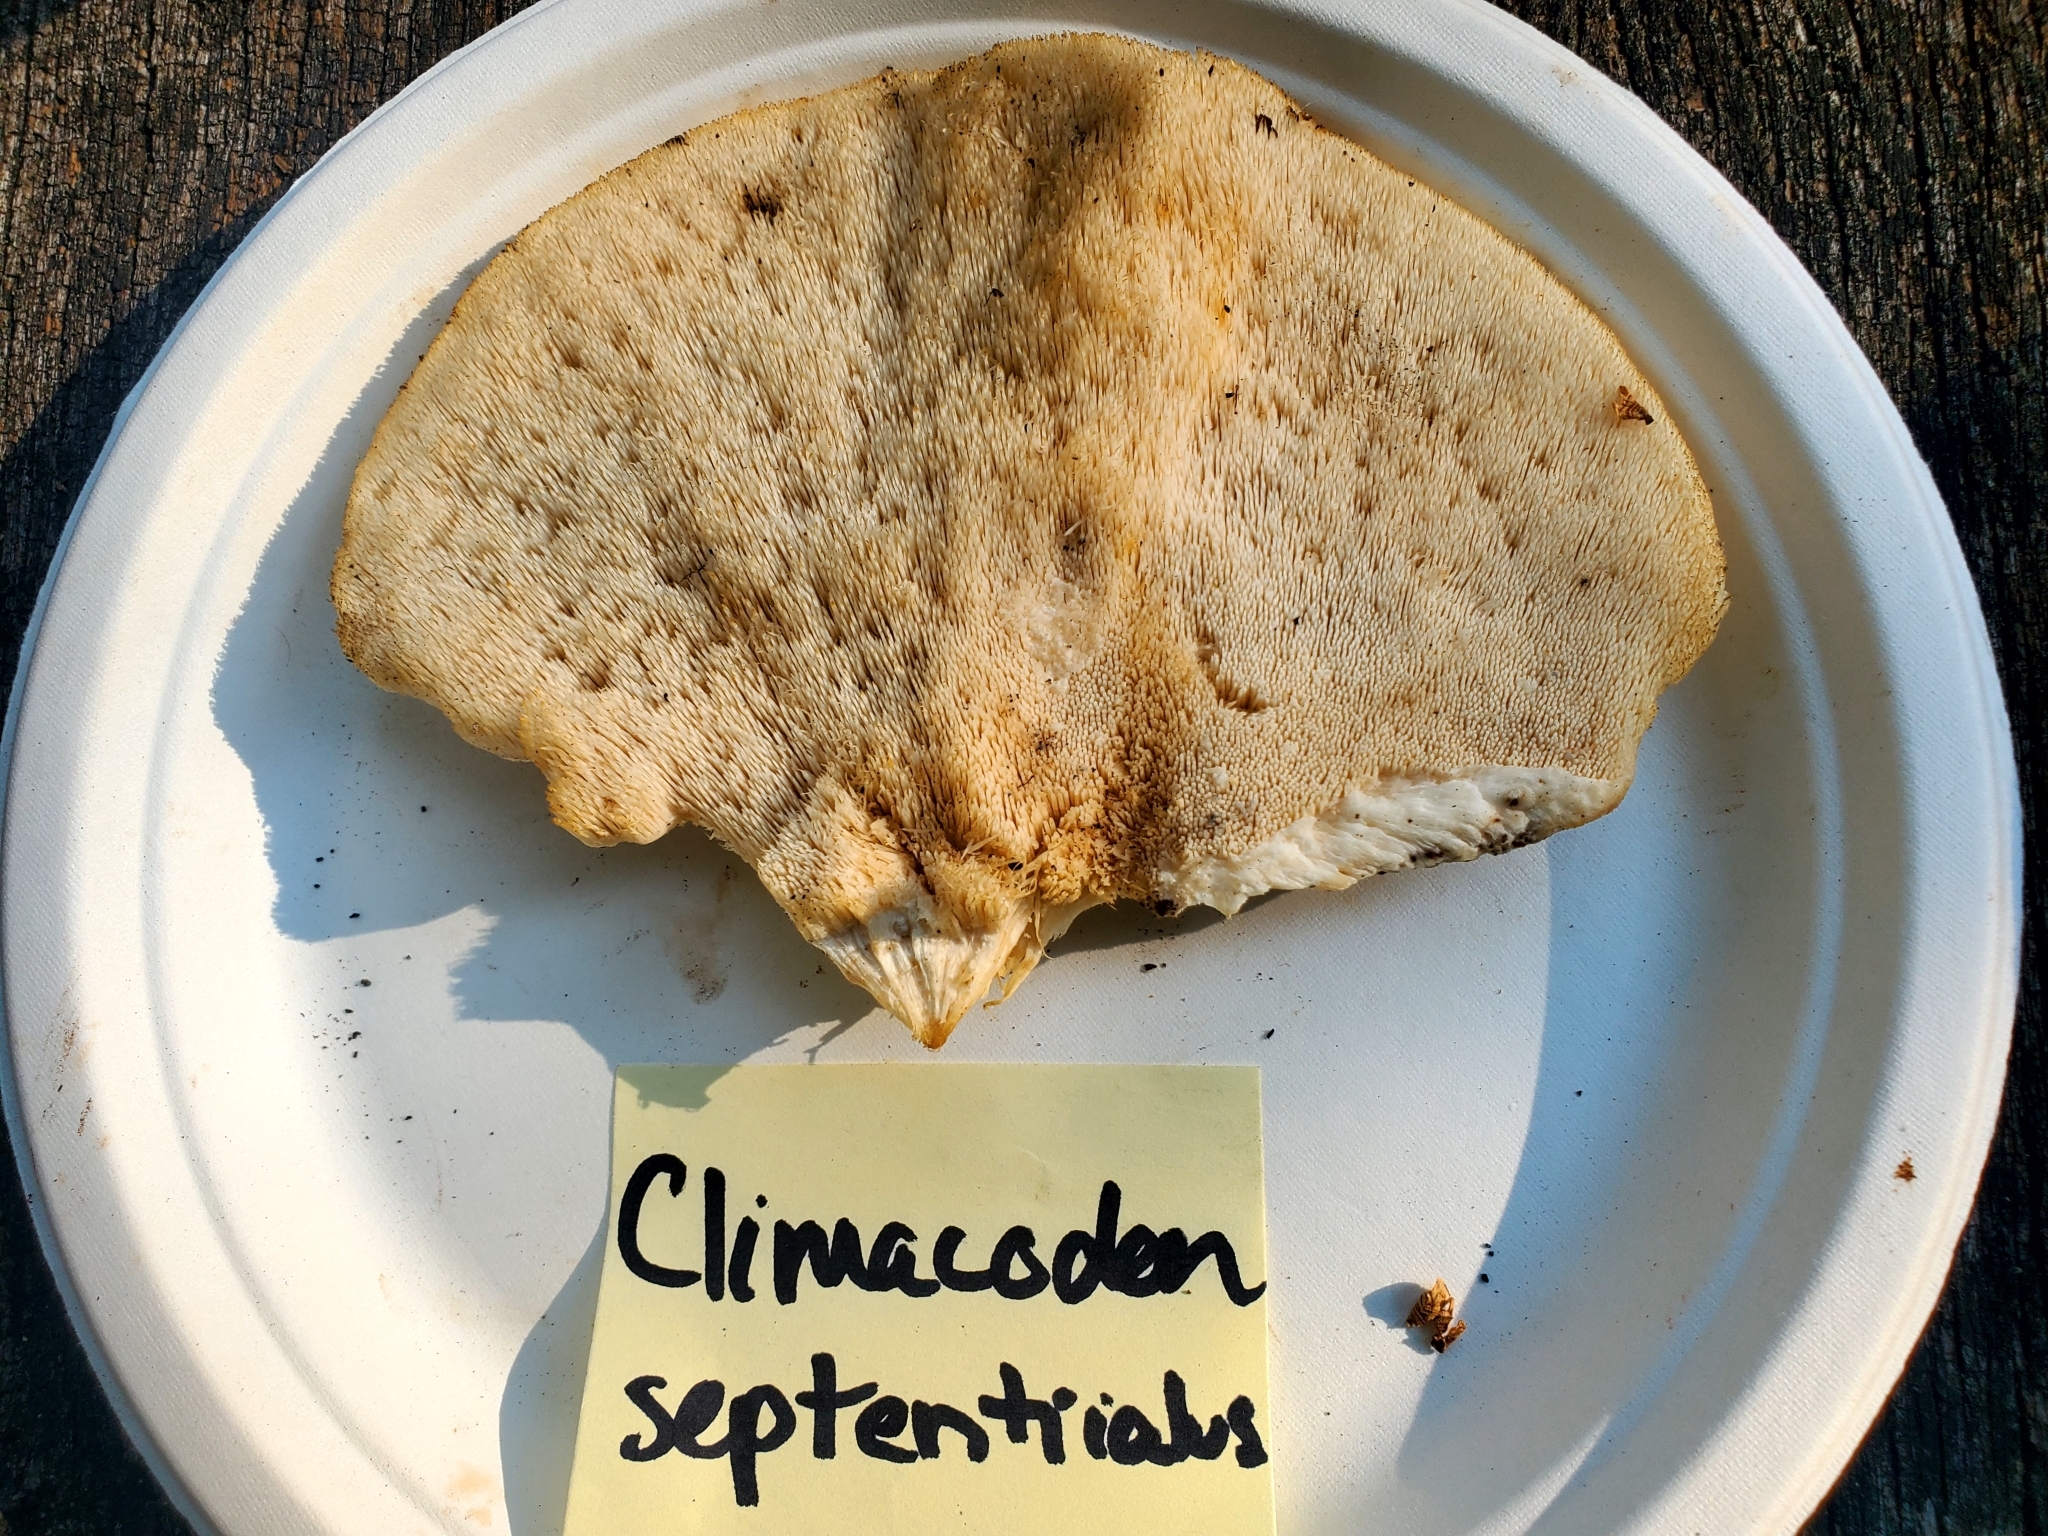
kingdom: Fungi
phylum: Basidiomycota
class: Agaricomycetes
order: Polyporales
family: Meruliaceae
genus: Climacodon
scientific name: Climacodon septentrionalis
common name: Northern tooth
